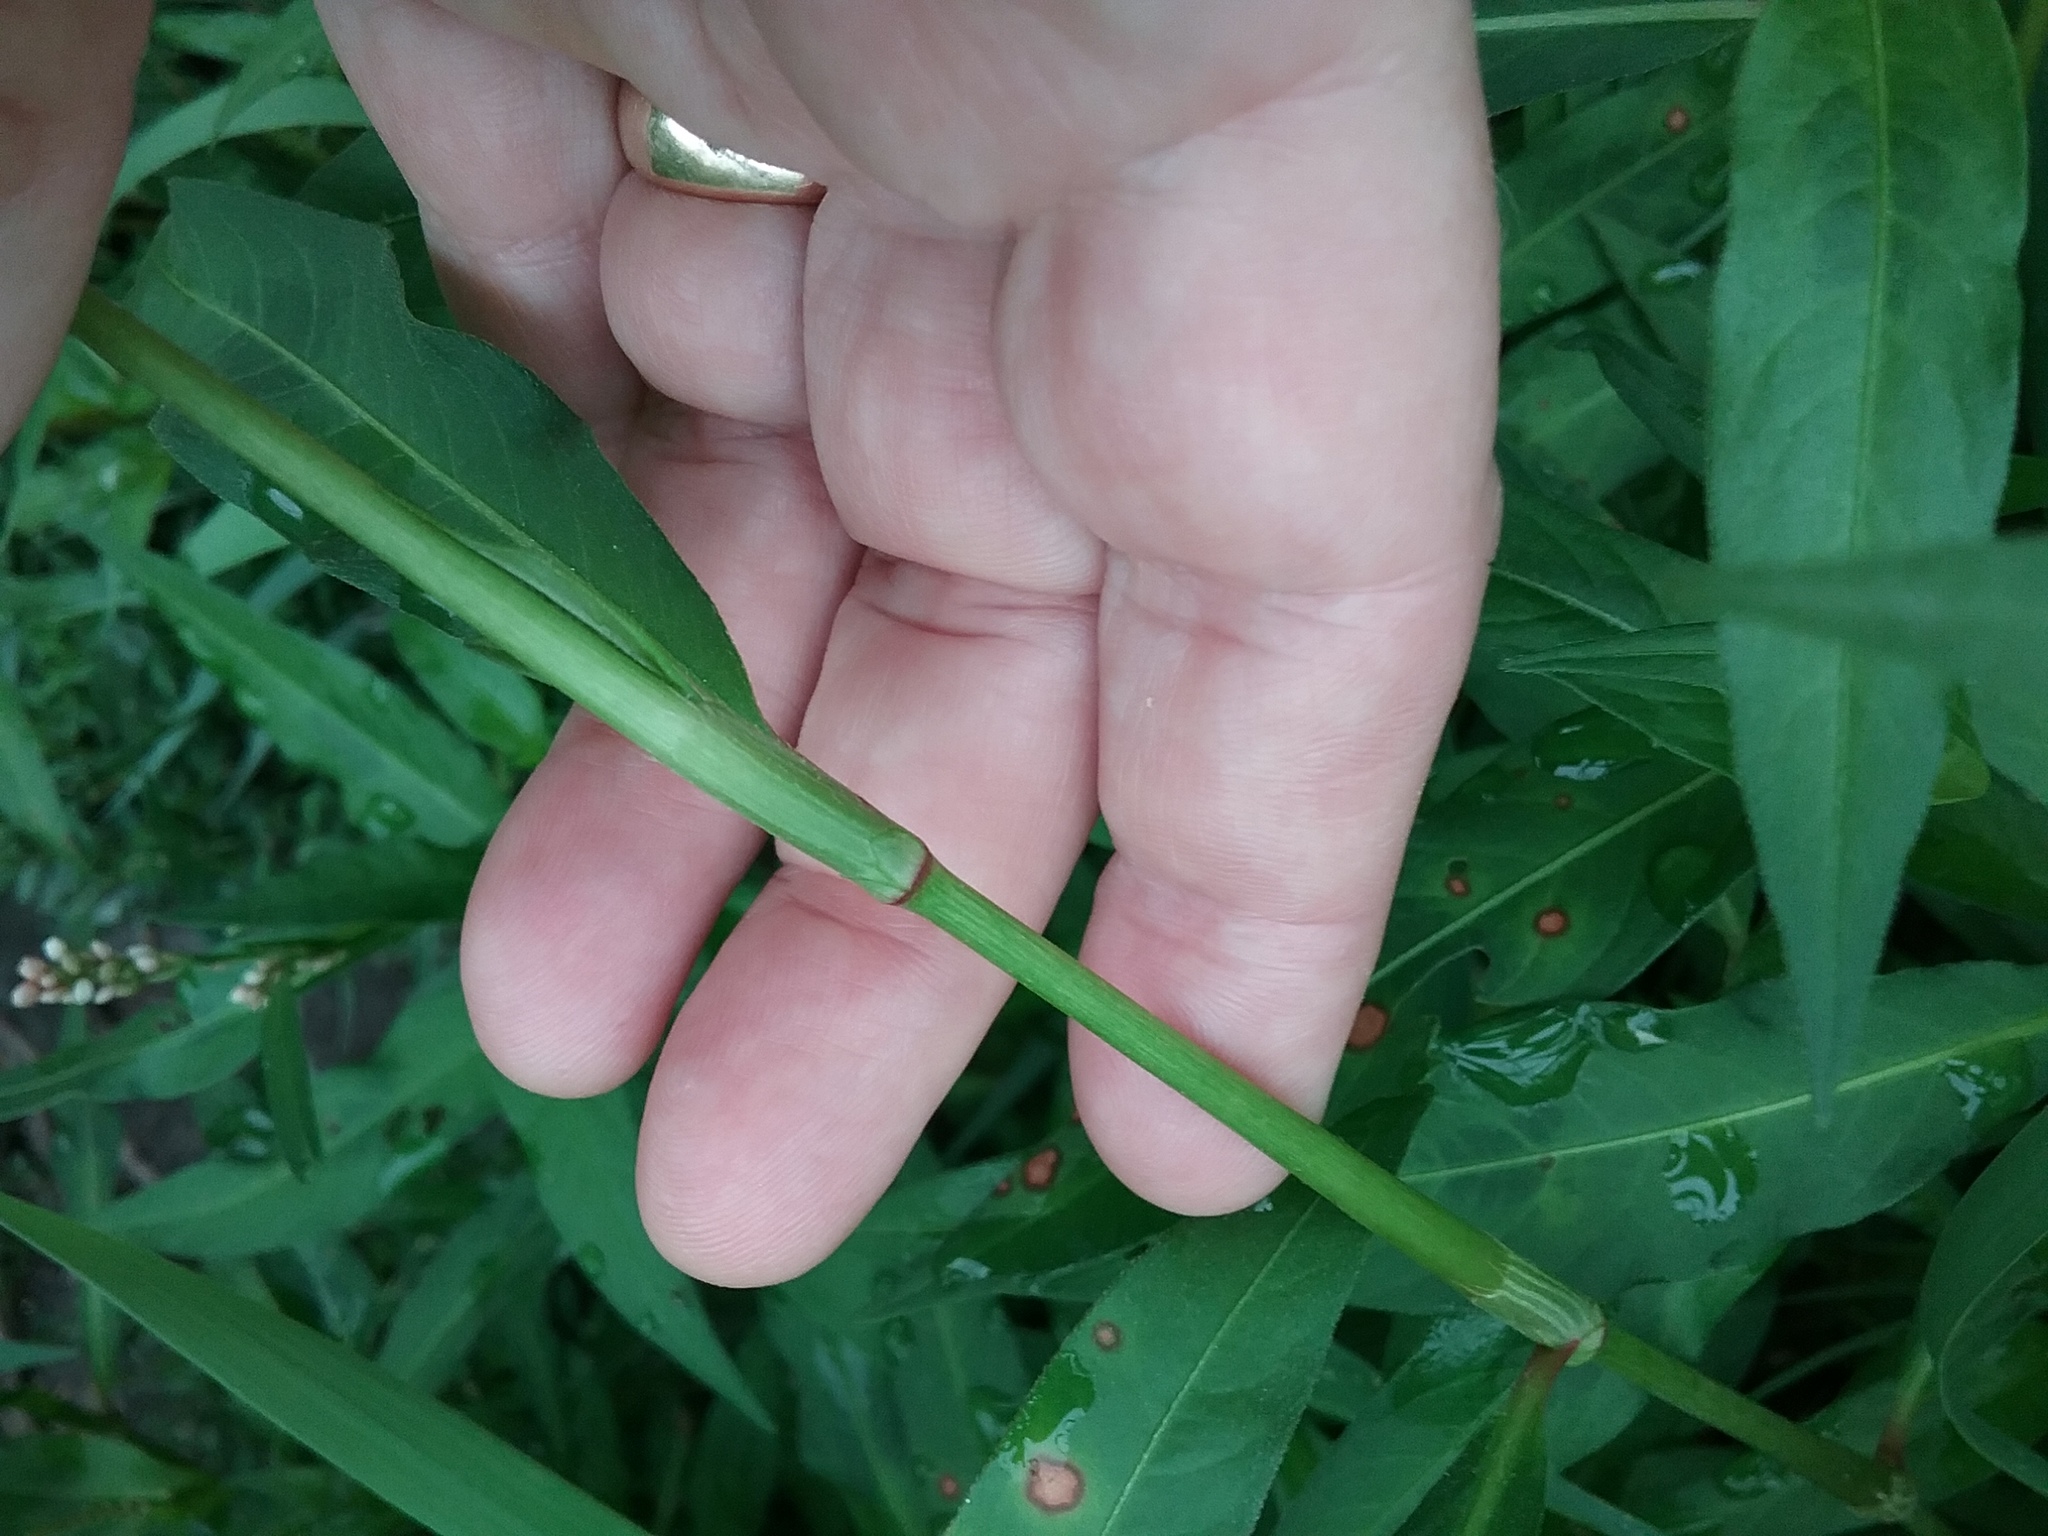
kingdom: Plantae
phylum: Tracheophyta
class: Magnoliopsida
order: Caryophyllales
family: Polygonaceae
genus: Persicaria
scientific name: Persicaria maculosa
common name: Redshank
